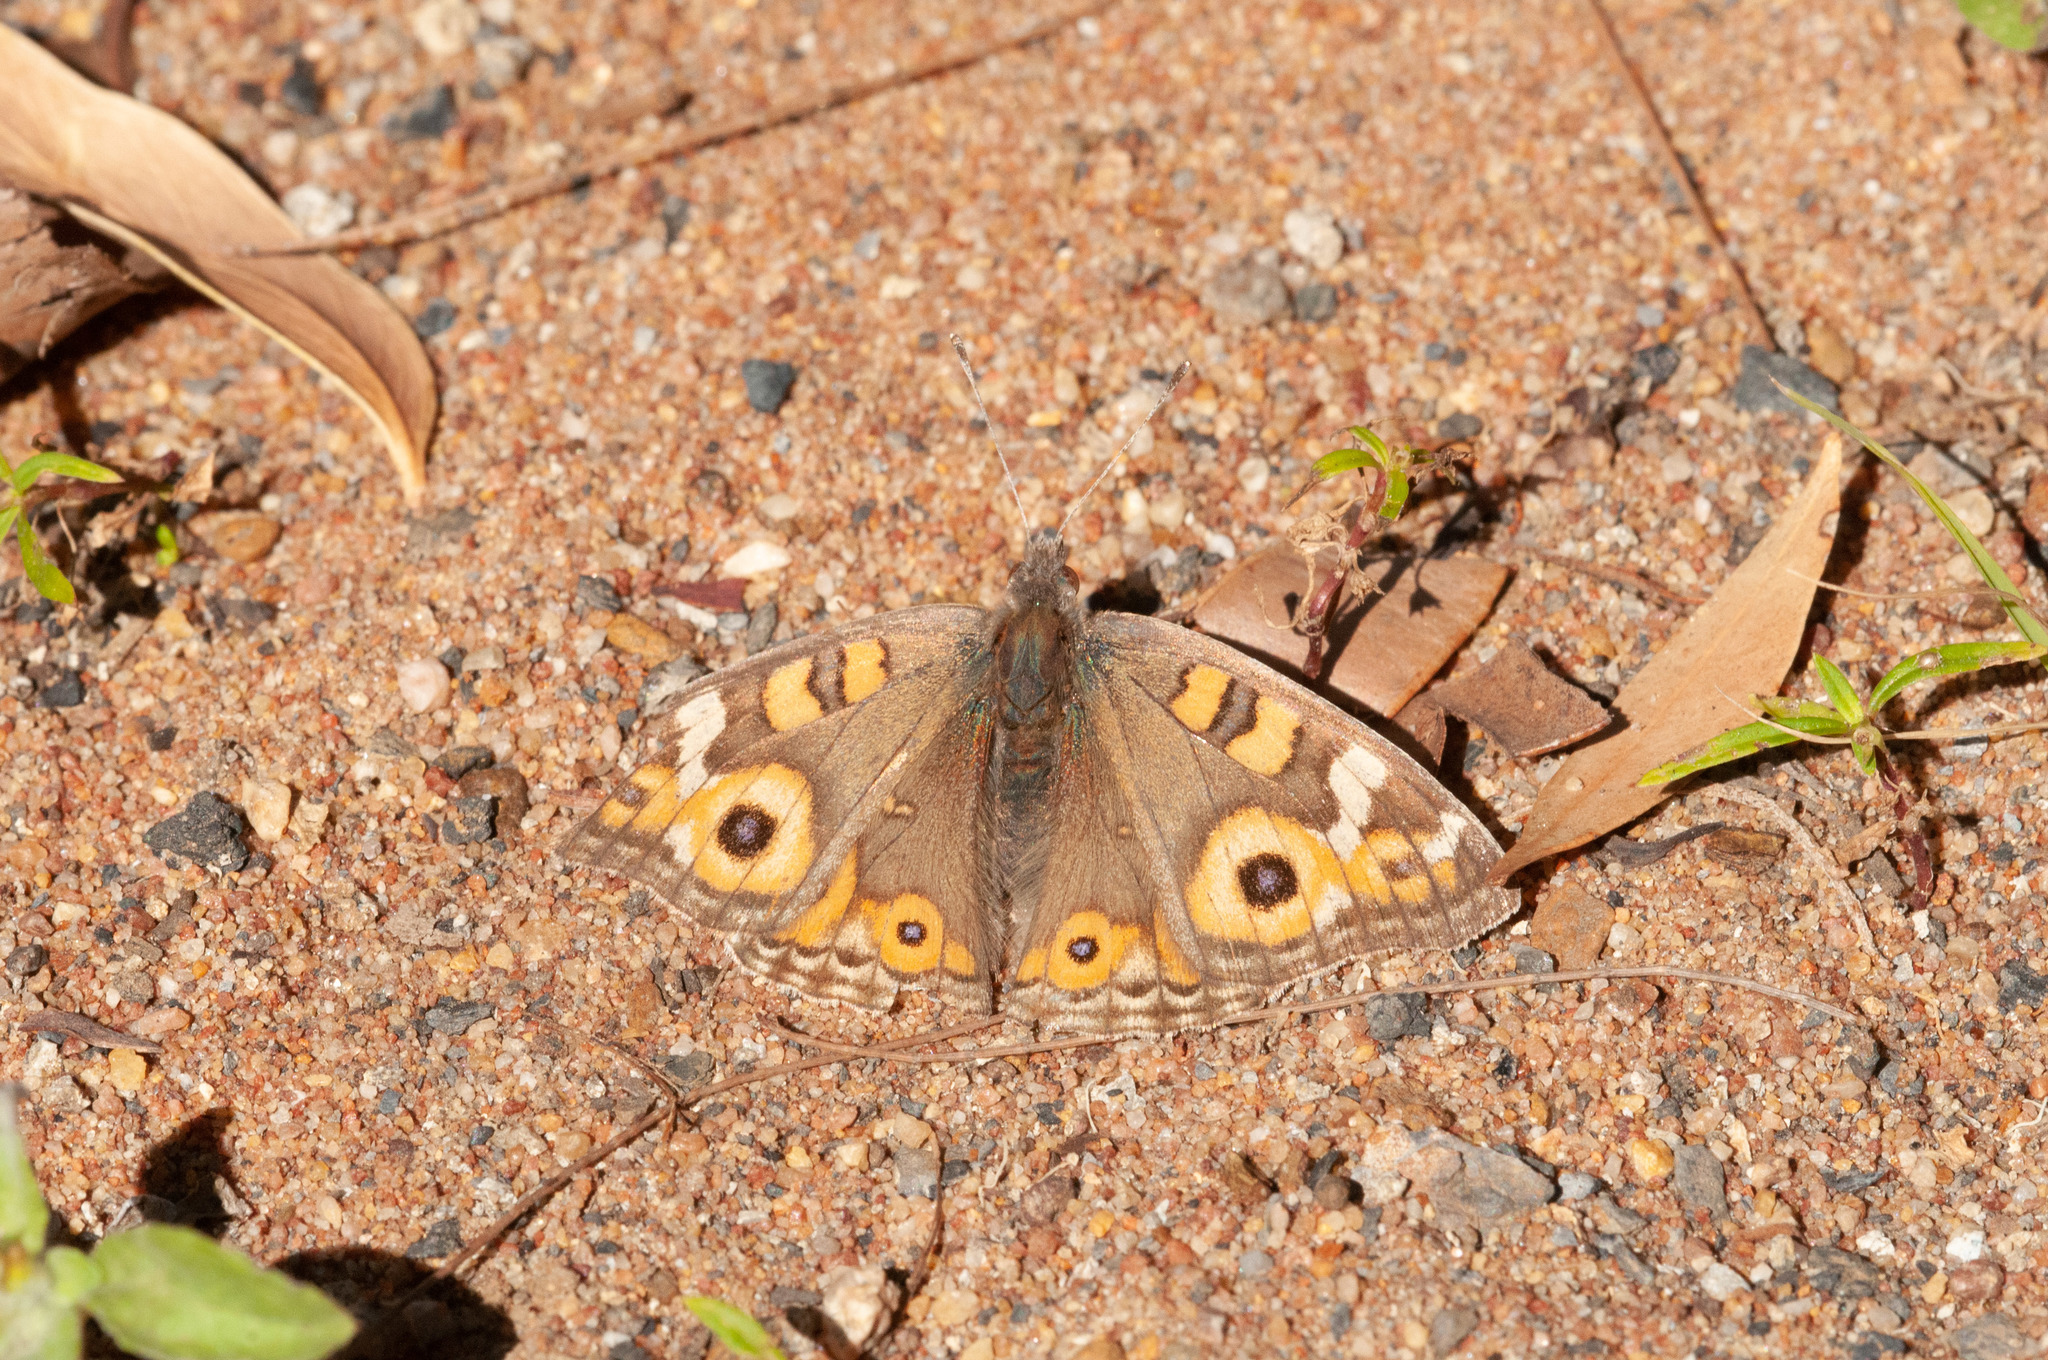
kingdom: Animalia
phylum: Arthropoda
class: Insecta
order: Lepidoptera
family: Nymphalidae
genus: Junonia
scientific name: Junonia villida
